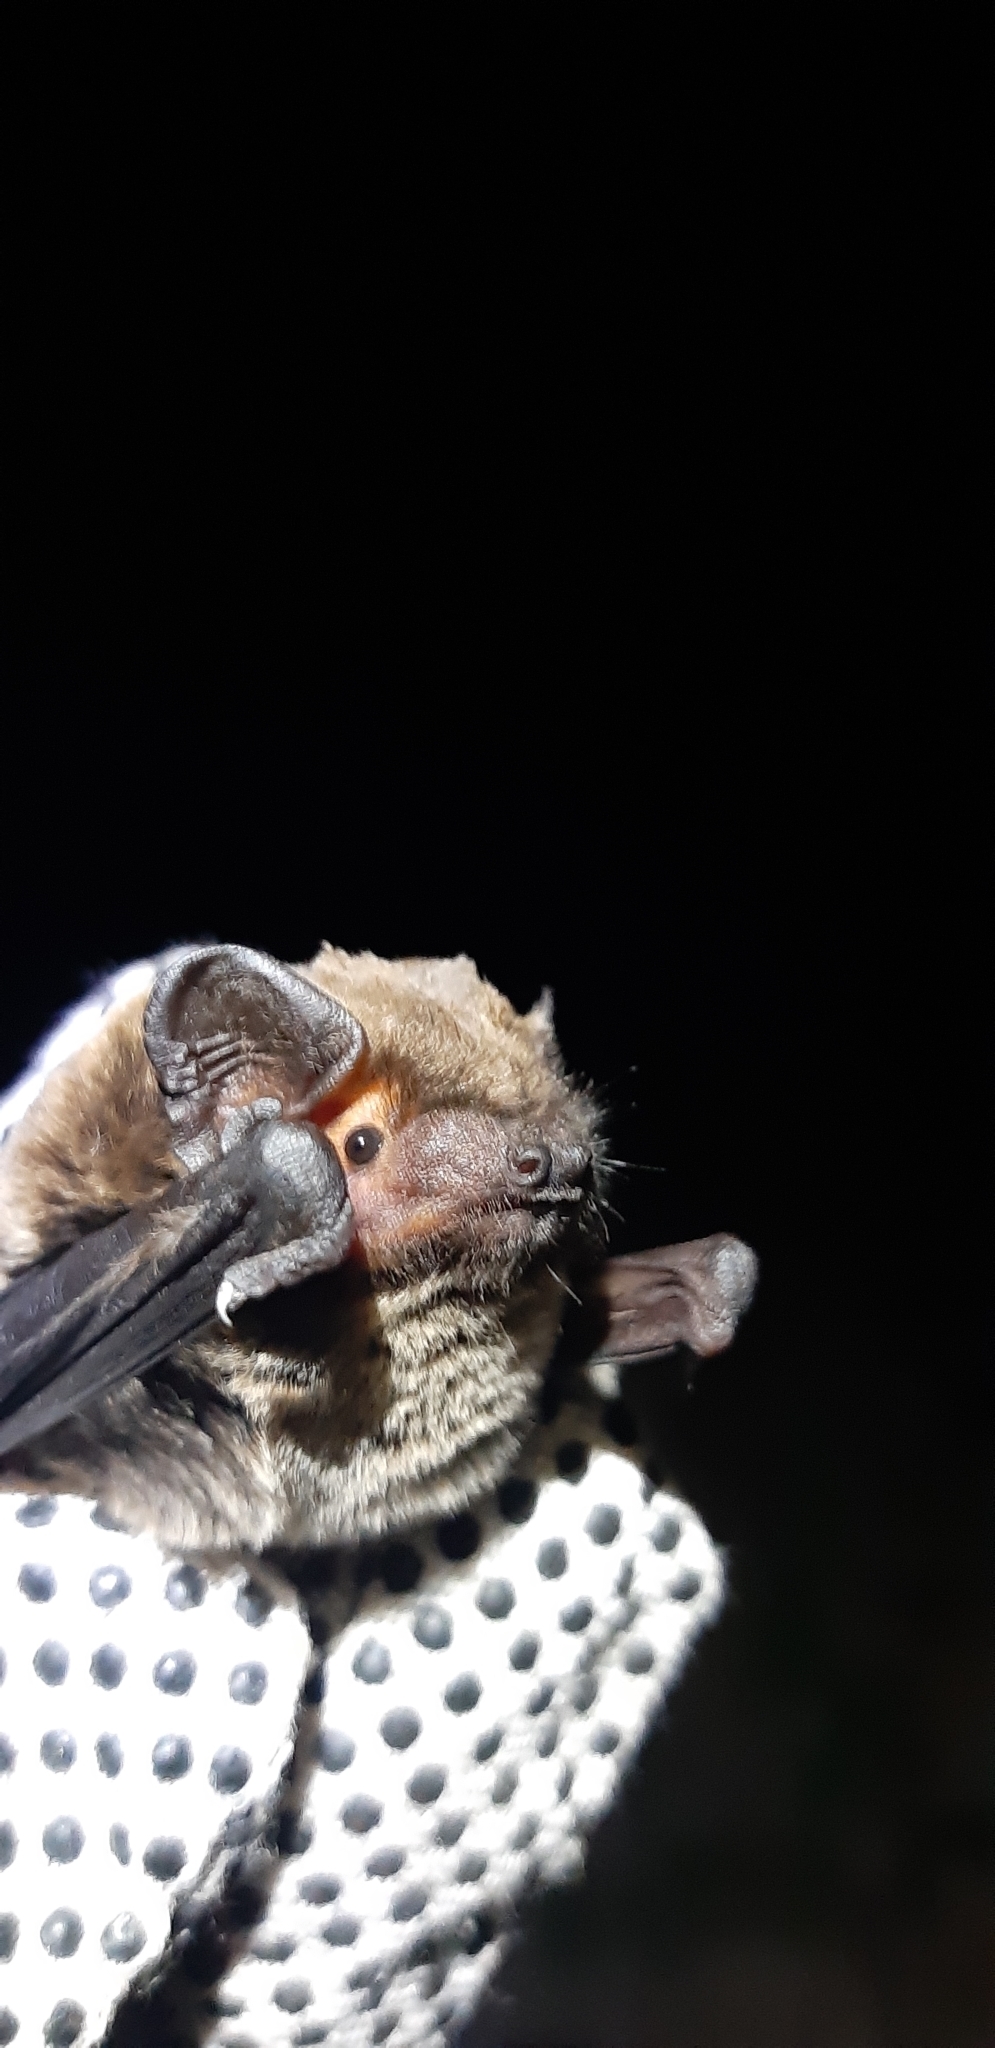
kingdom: Animalia
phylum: Chordata
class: Mammalia
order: Chiroptera
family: Vespertilionidae
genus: Nyctalus
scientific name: Nyctalus leisleri
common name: Lesser noctule
